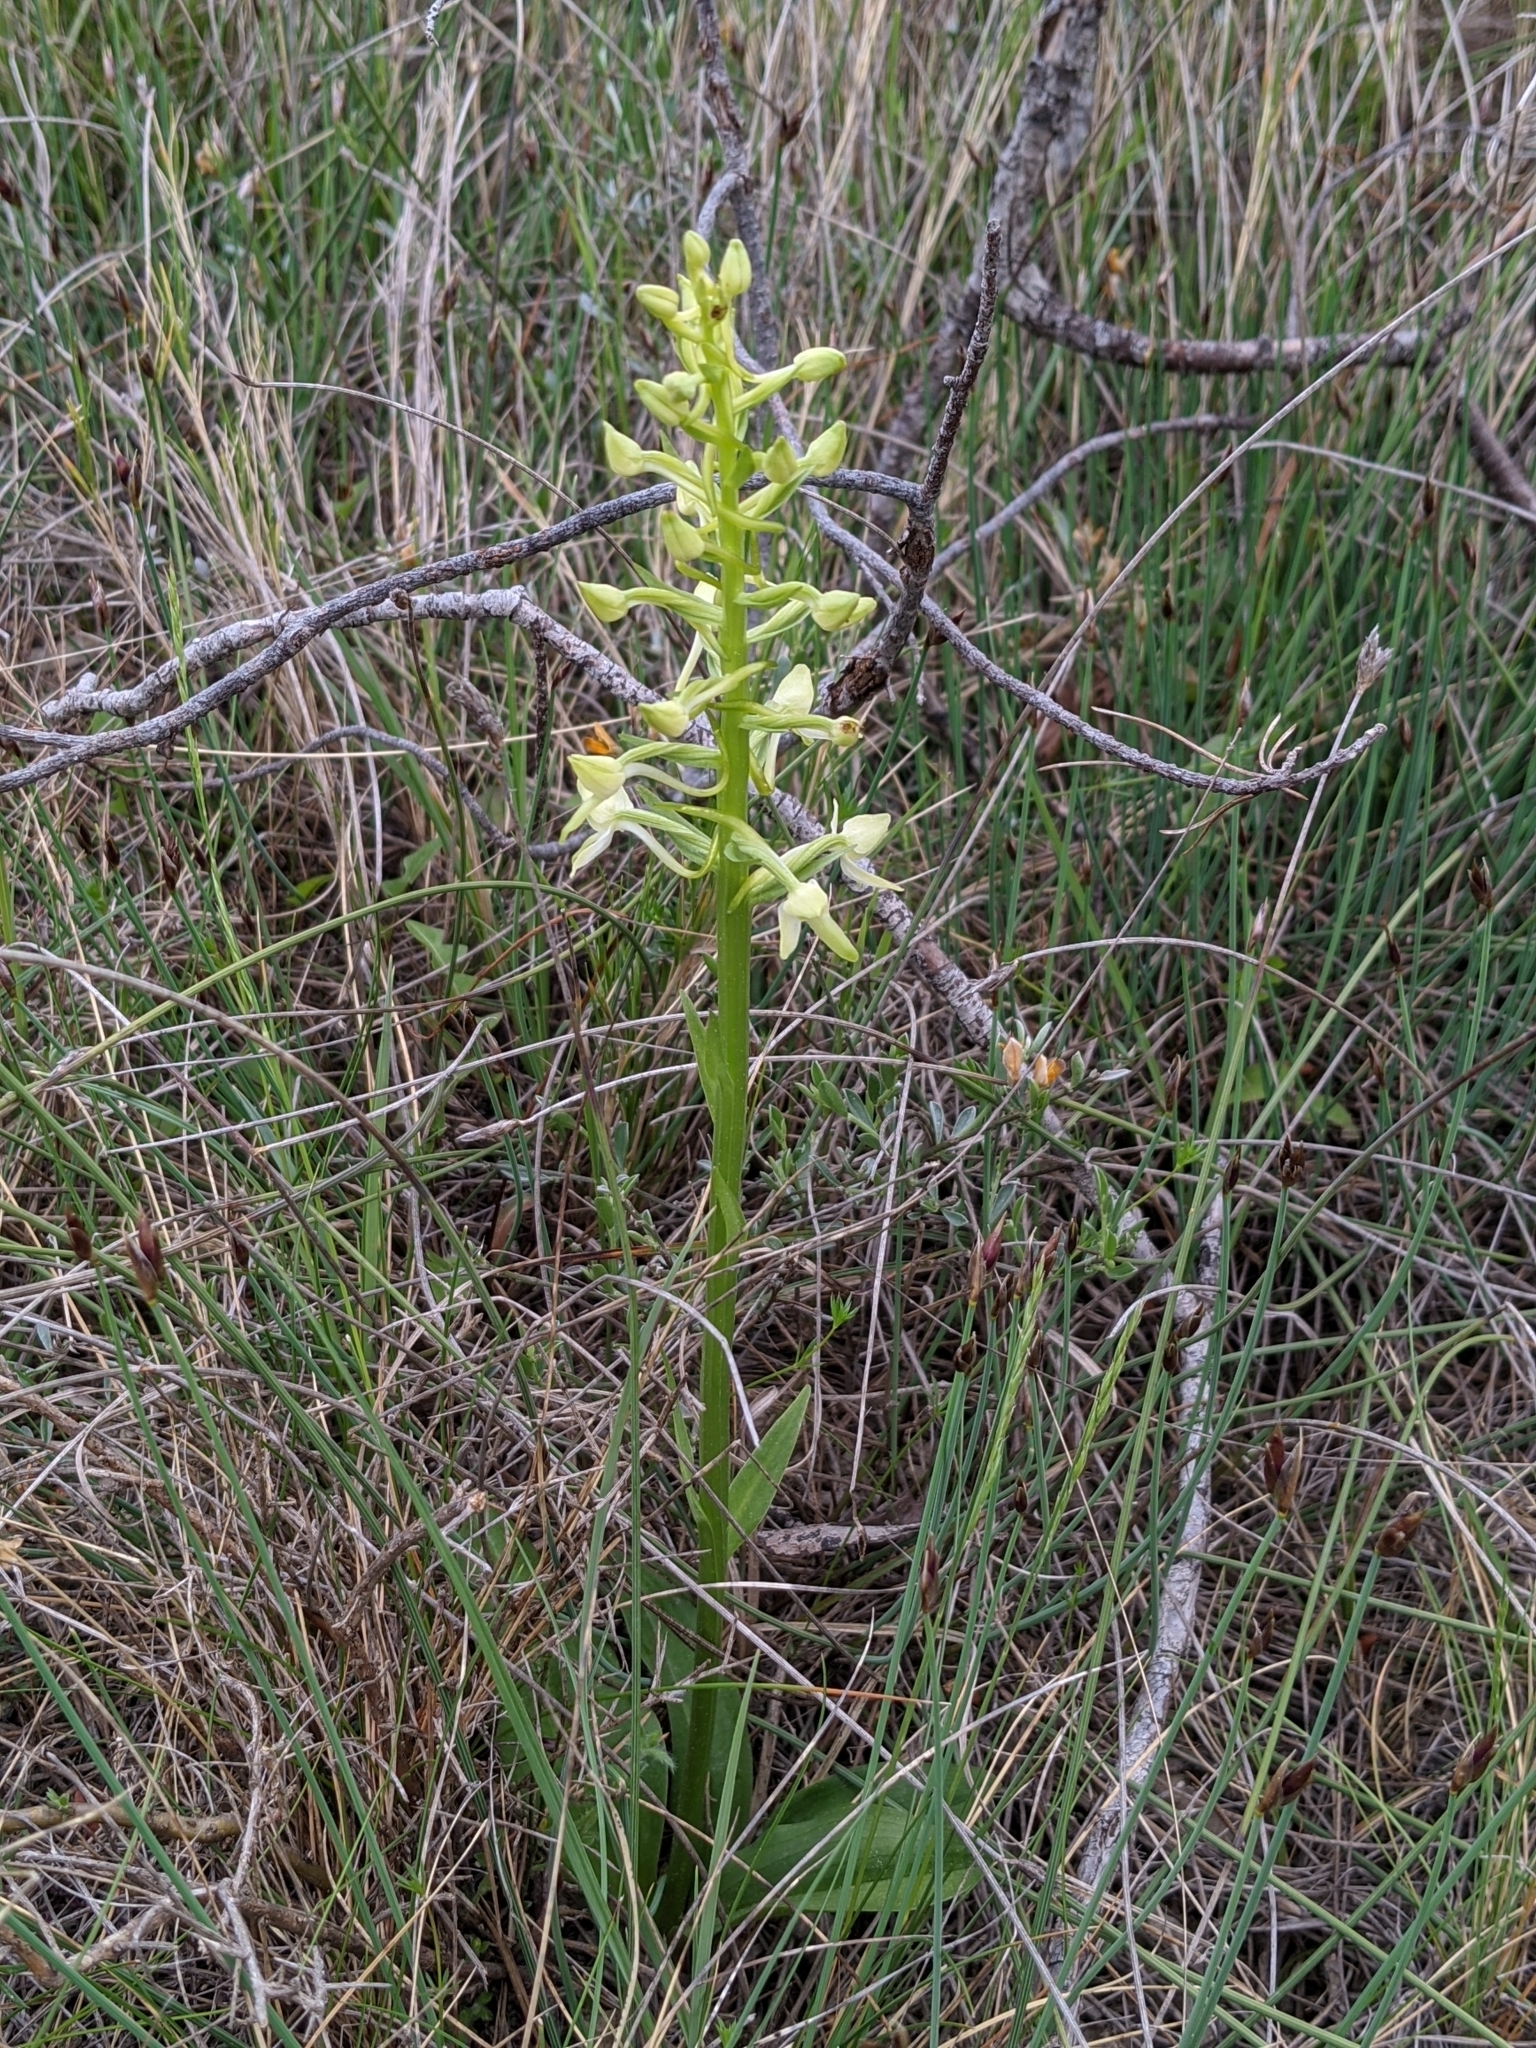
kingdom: Plantae
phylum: Tracheophyta
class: Liliopsida
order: Asparagales
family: Orchidaceae
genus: Platanthera
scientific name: Platanthera bifolia
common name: Lesser butterfly-orchid
